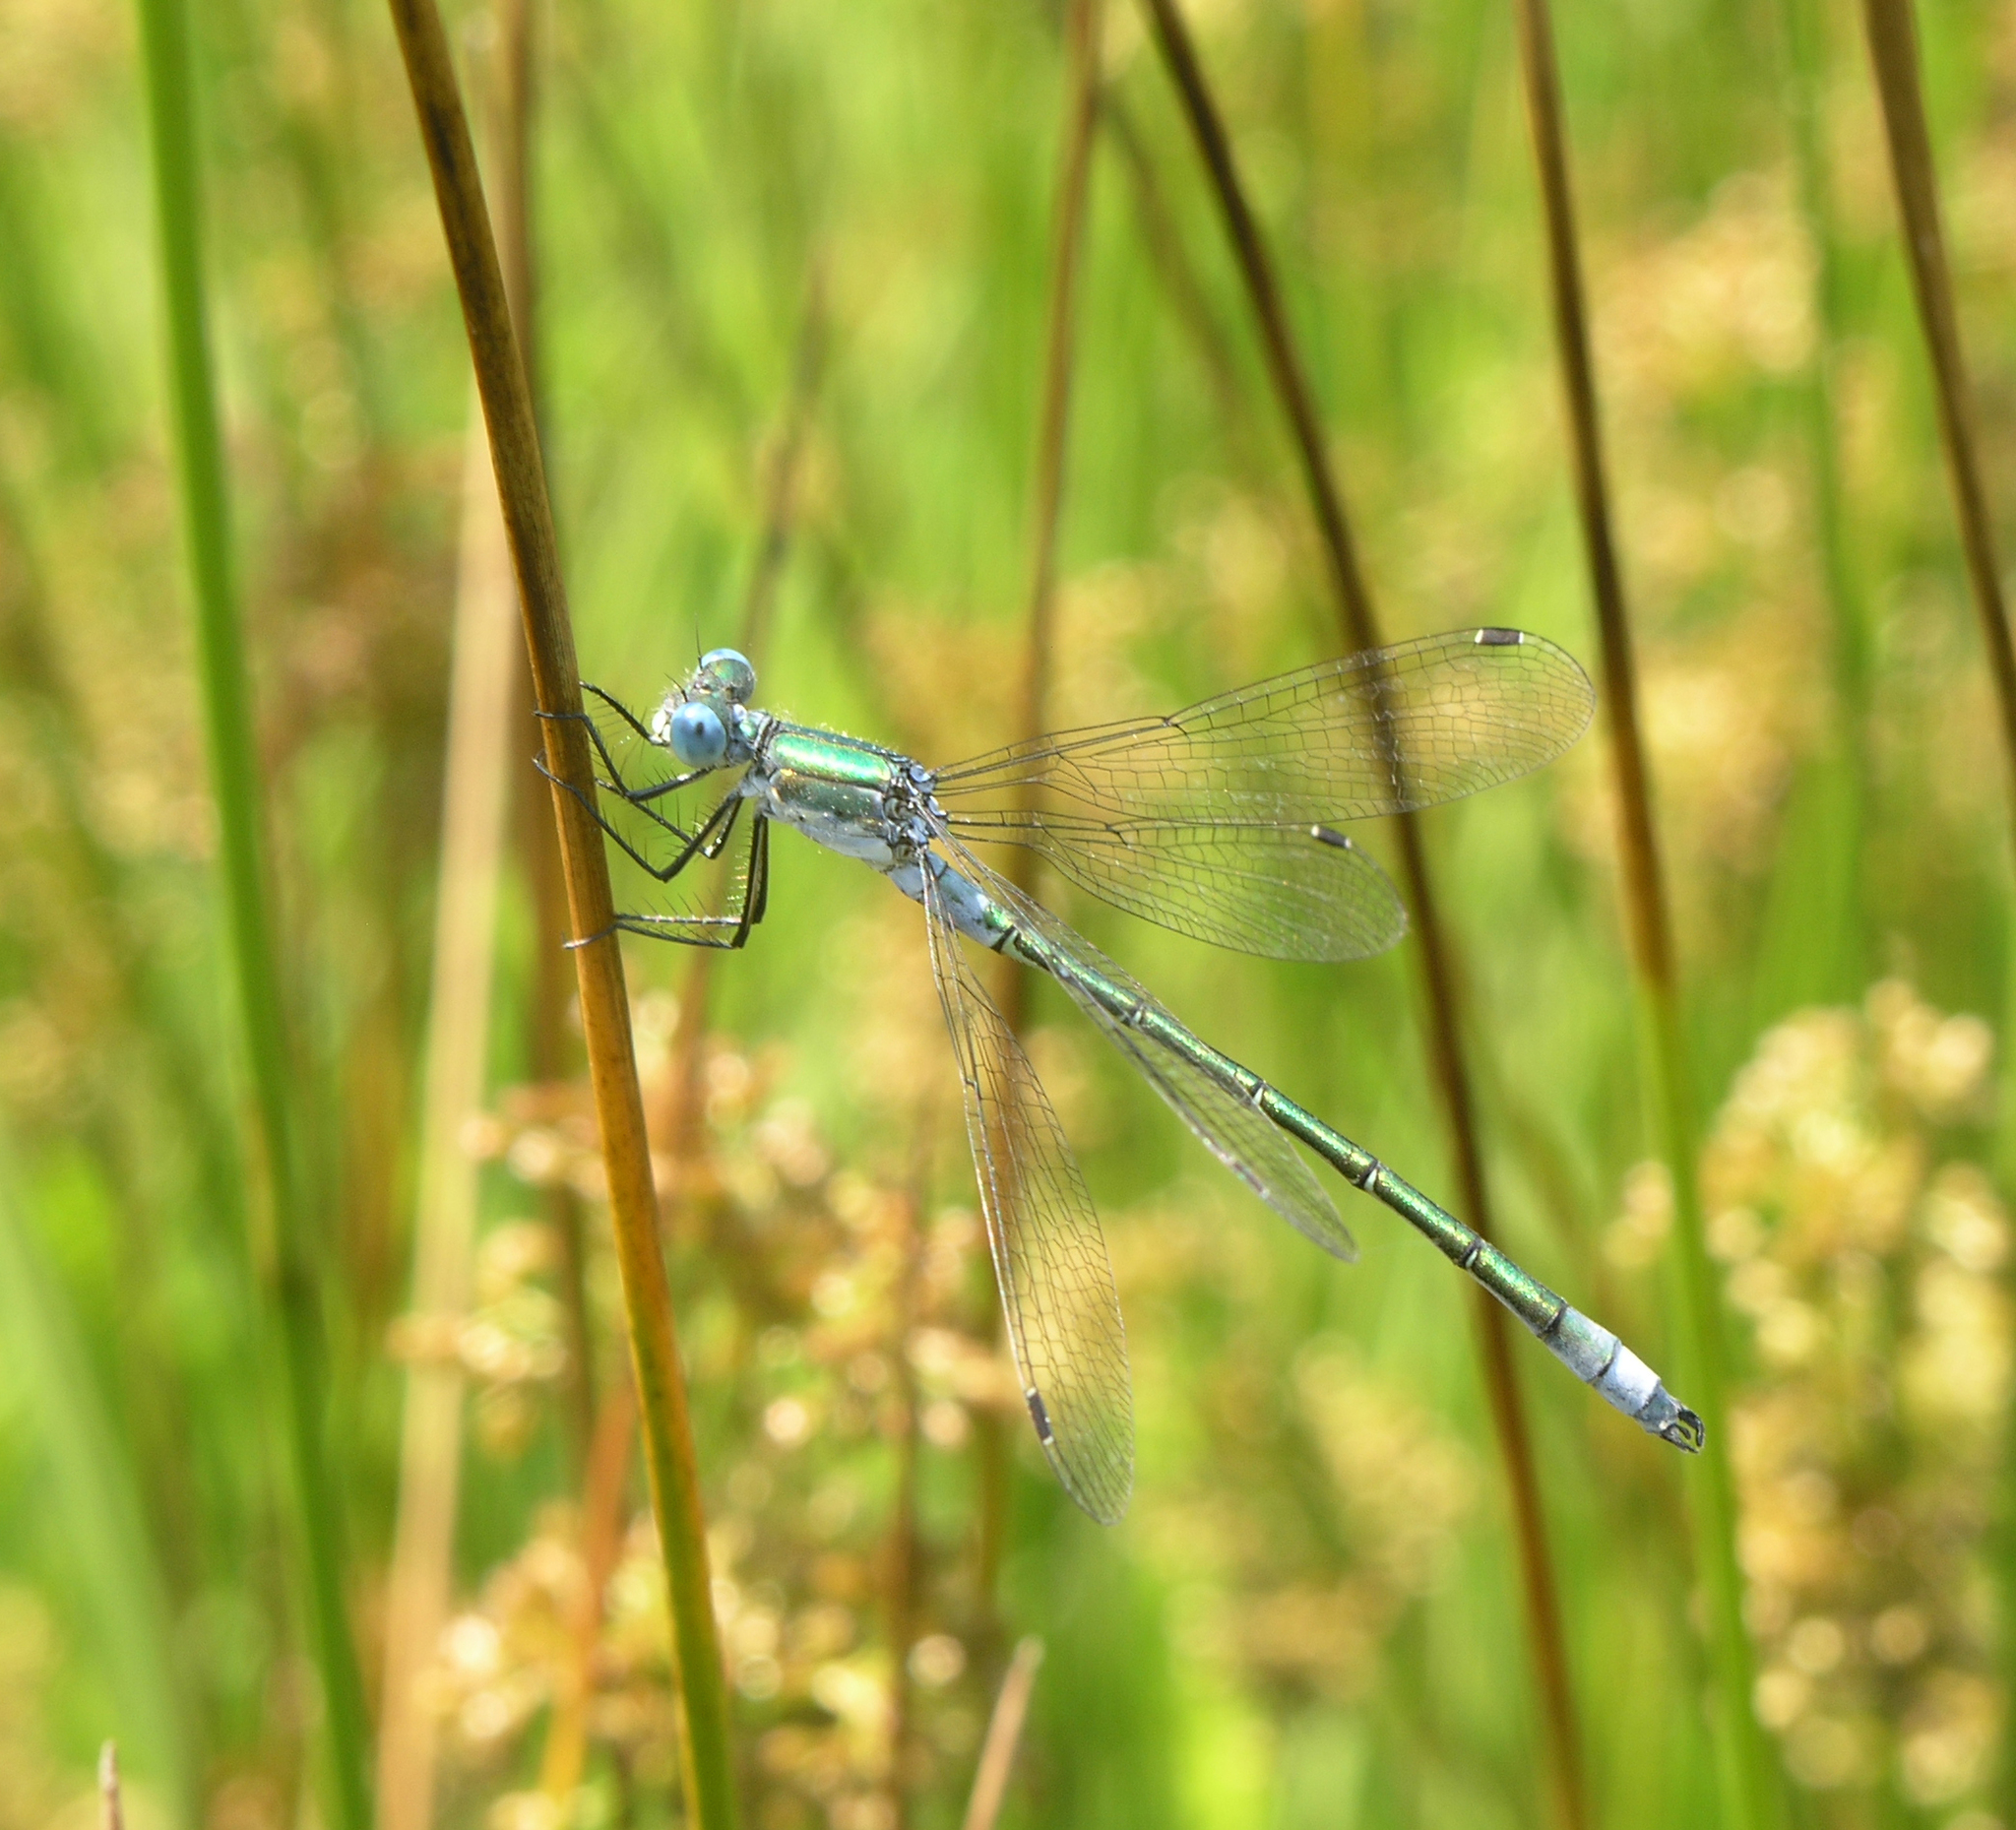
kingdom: Animalia
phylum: Arthropoda
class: Insecta
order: Odonata
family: Lestidae
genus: Lestes
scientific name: Lestes dryas
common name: Scarce emerald damselfly
